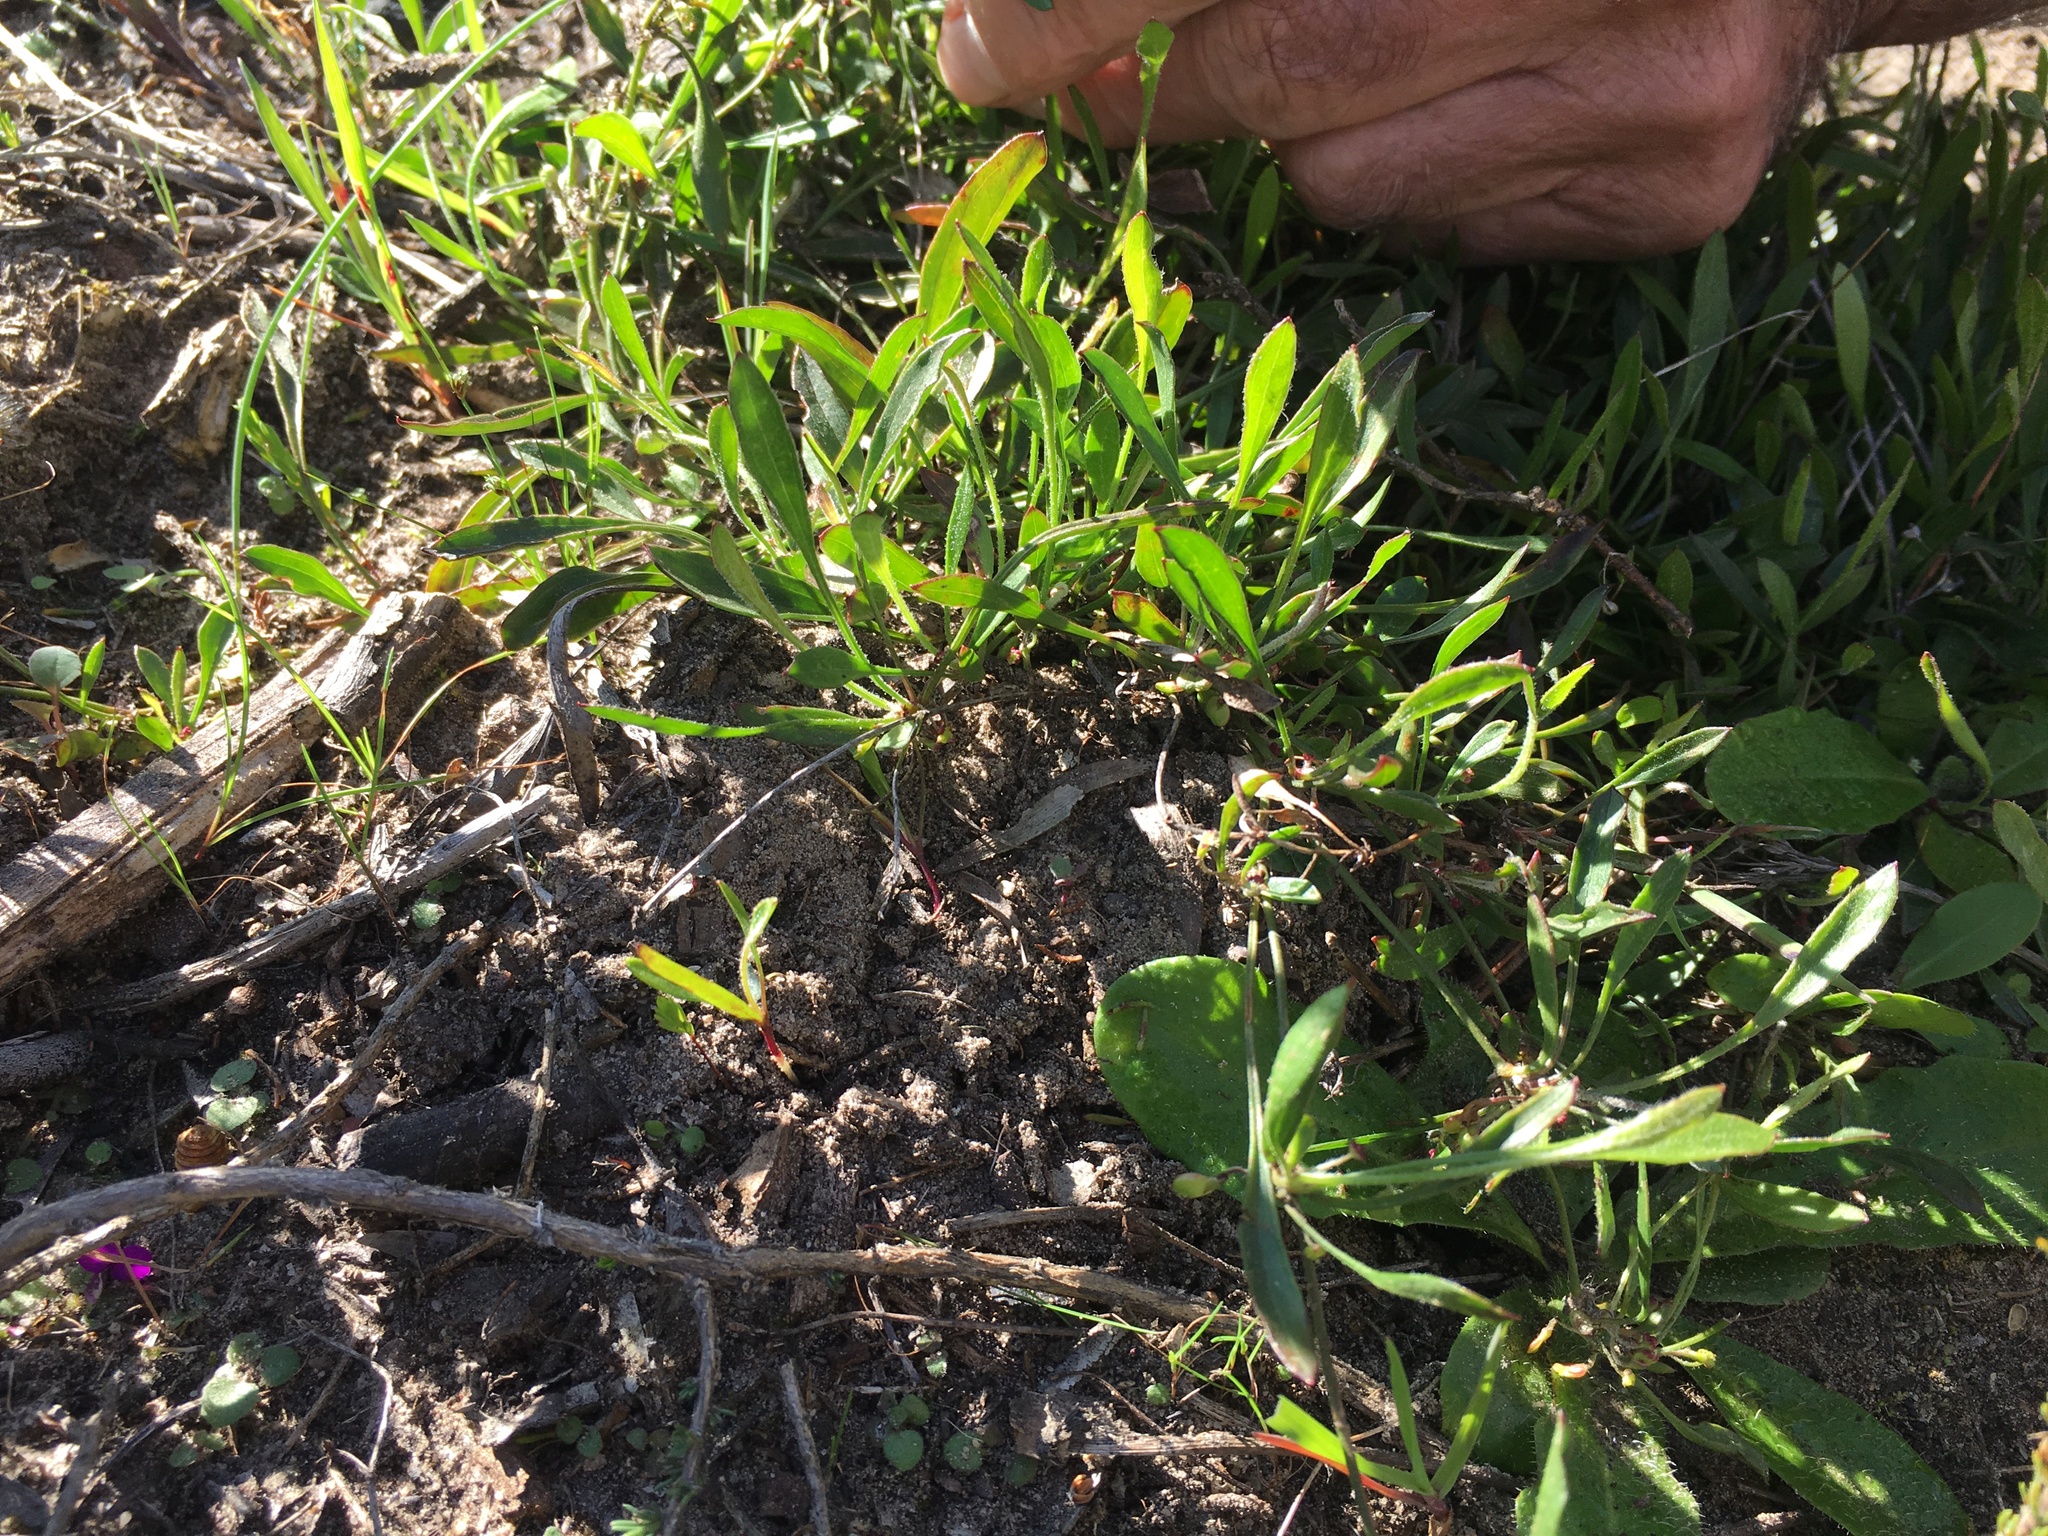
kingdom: Plantae
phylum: Tracheophyta
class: Magnoliopsida
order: Apiales
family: Apiaceae
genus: Centella
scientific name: Centella glabrata
